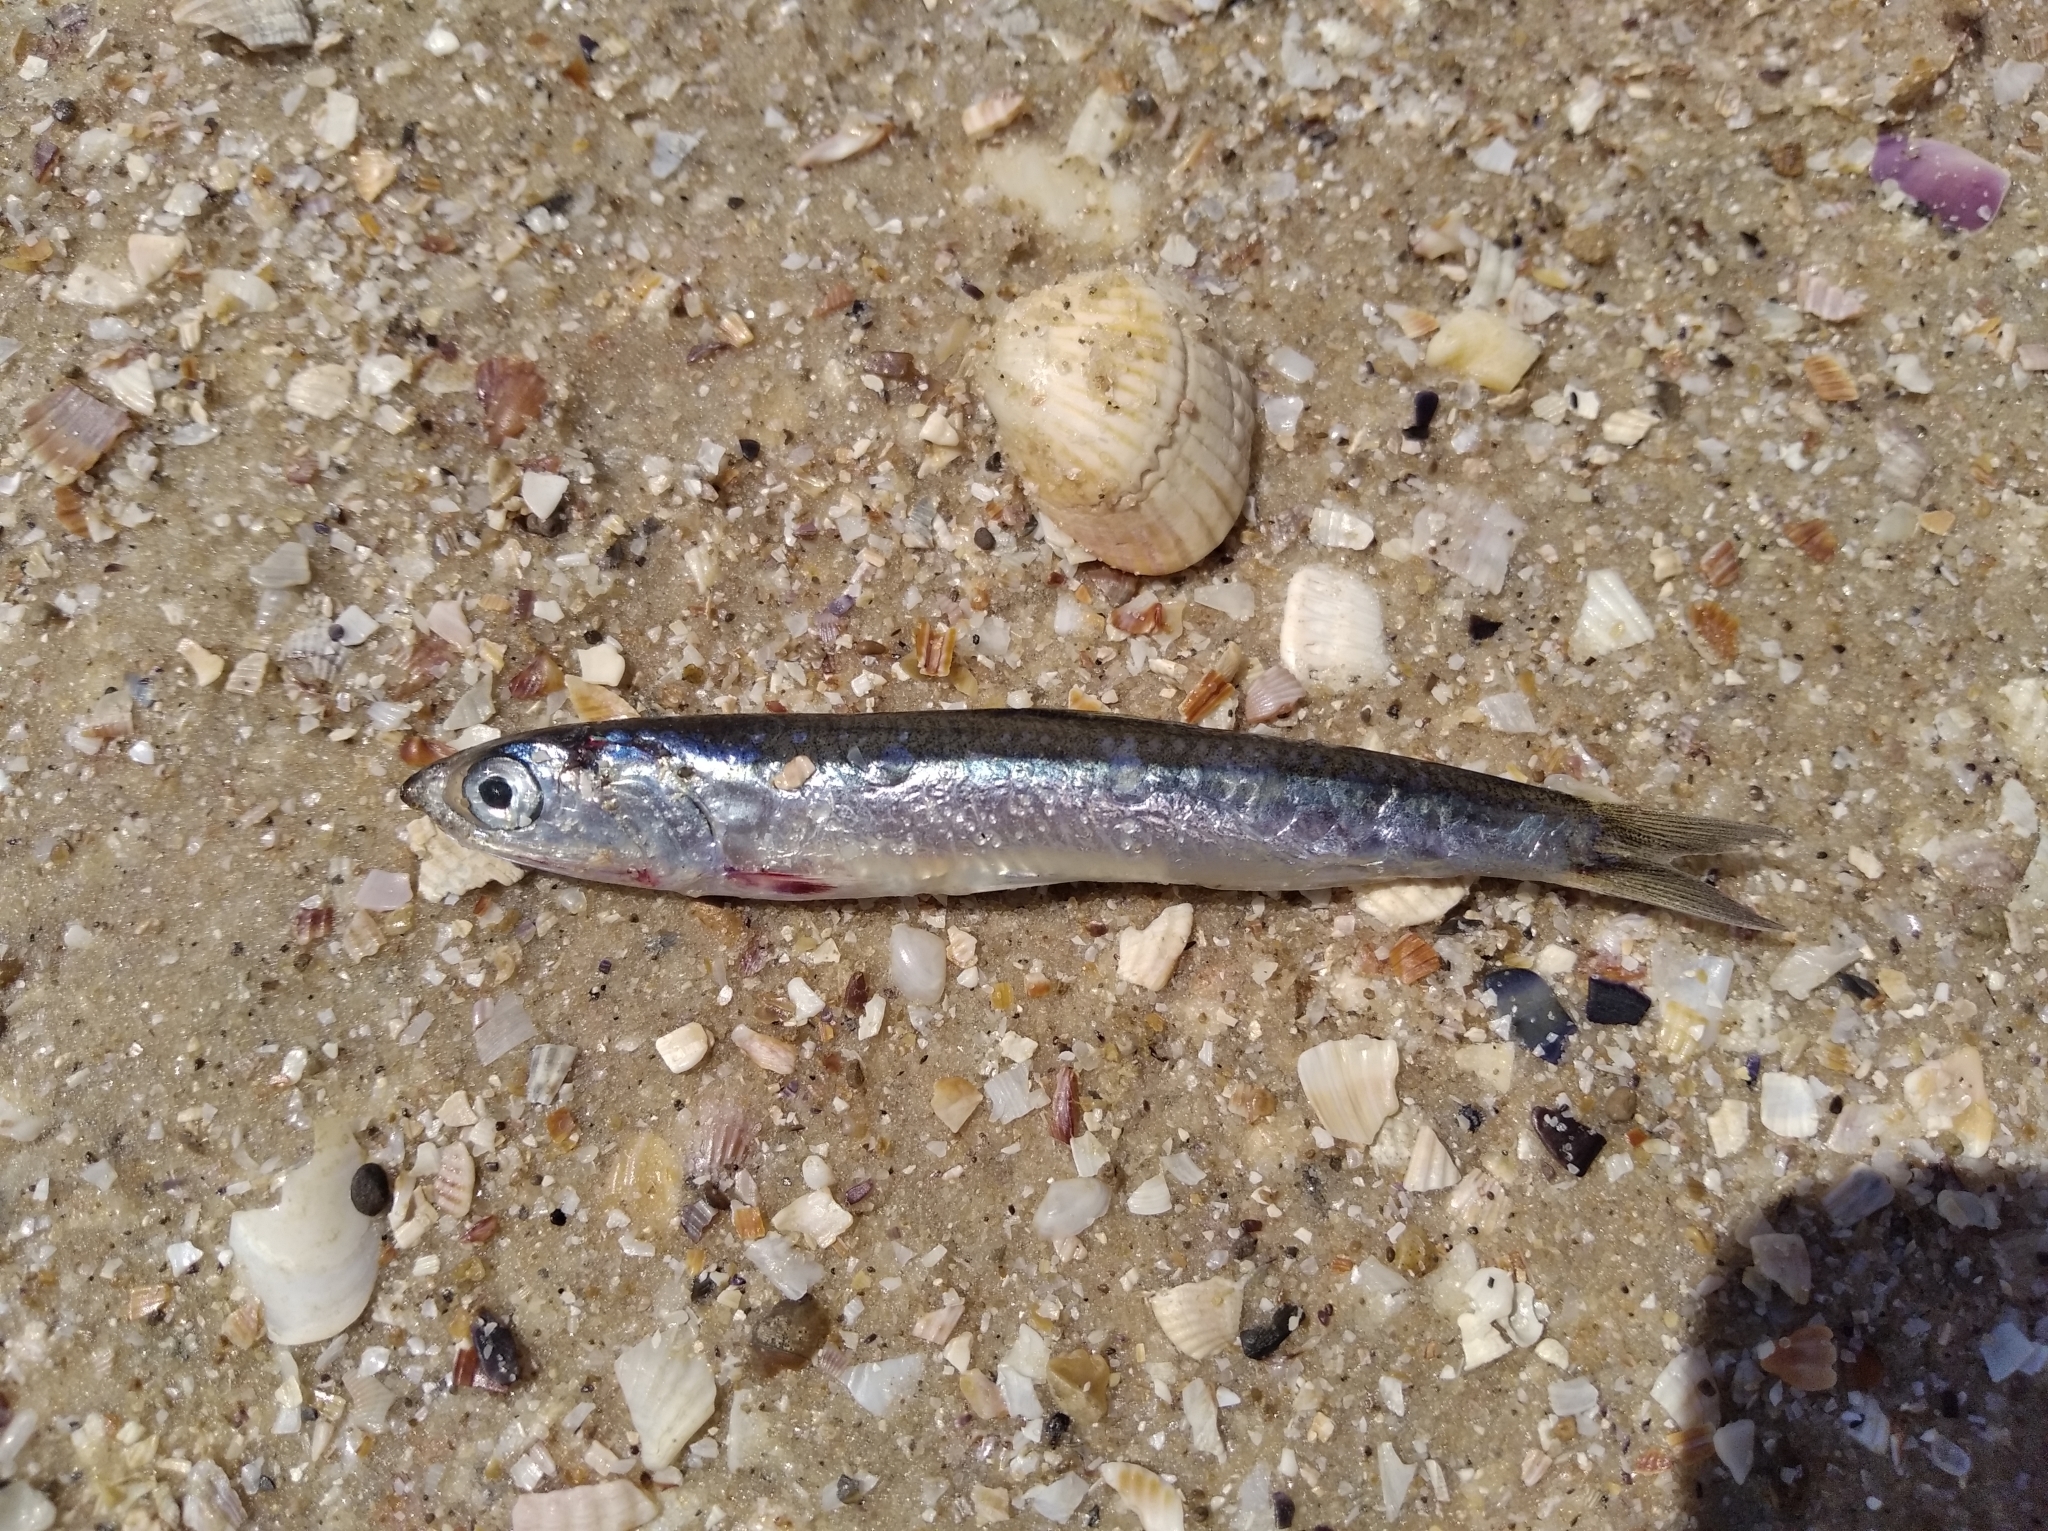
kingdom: Animalia
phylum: Chordata
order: Clupeiformes
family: Engraulidae
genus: Engraulis
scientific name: Engraulis encrasicolus
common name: European anchovy
